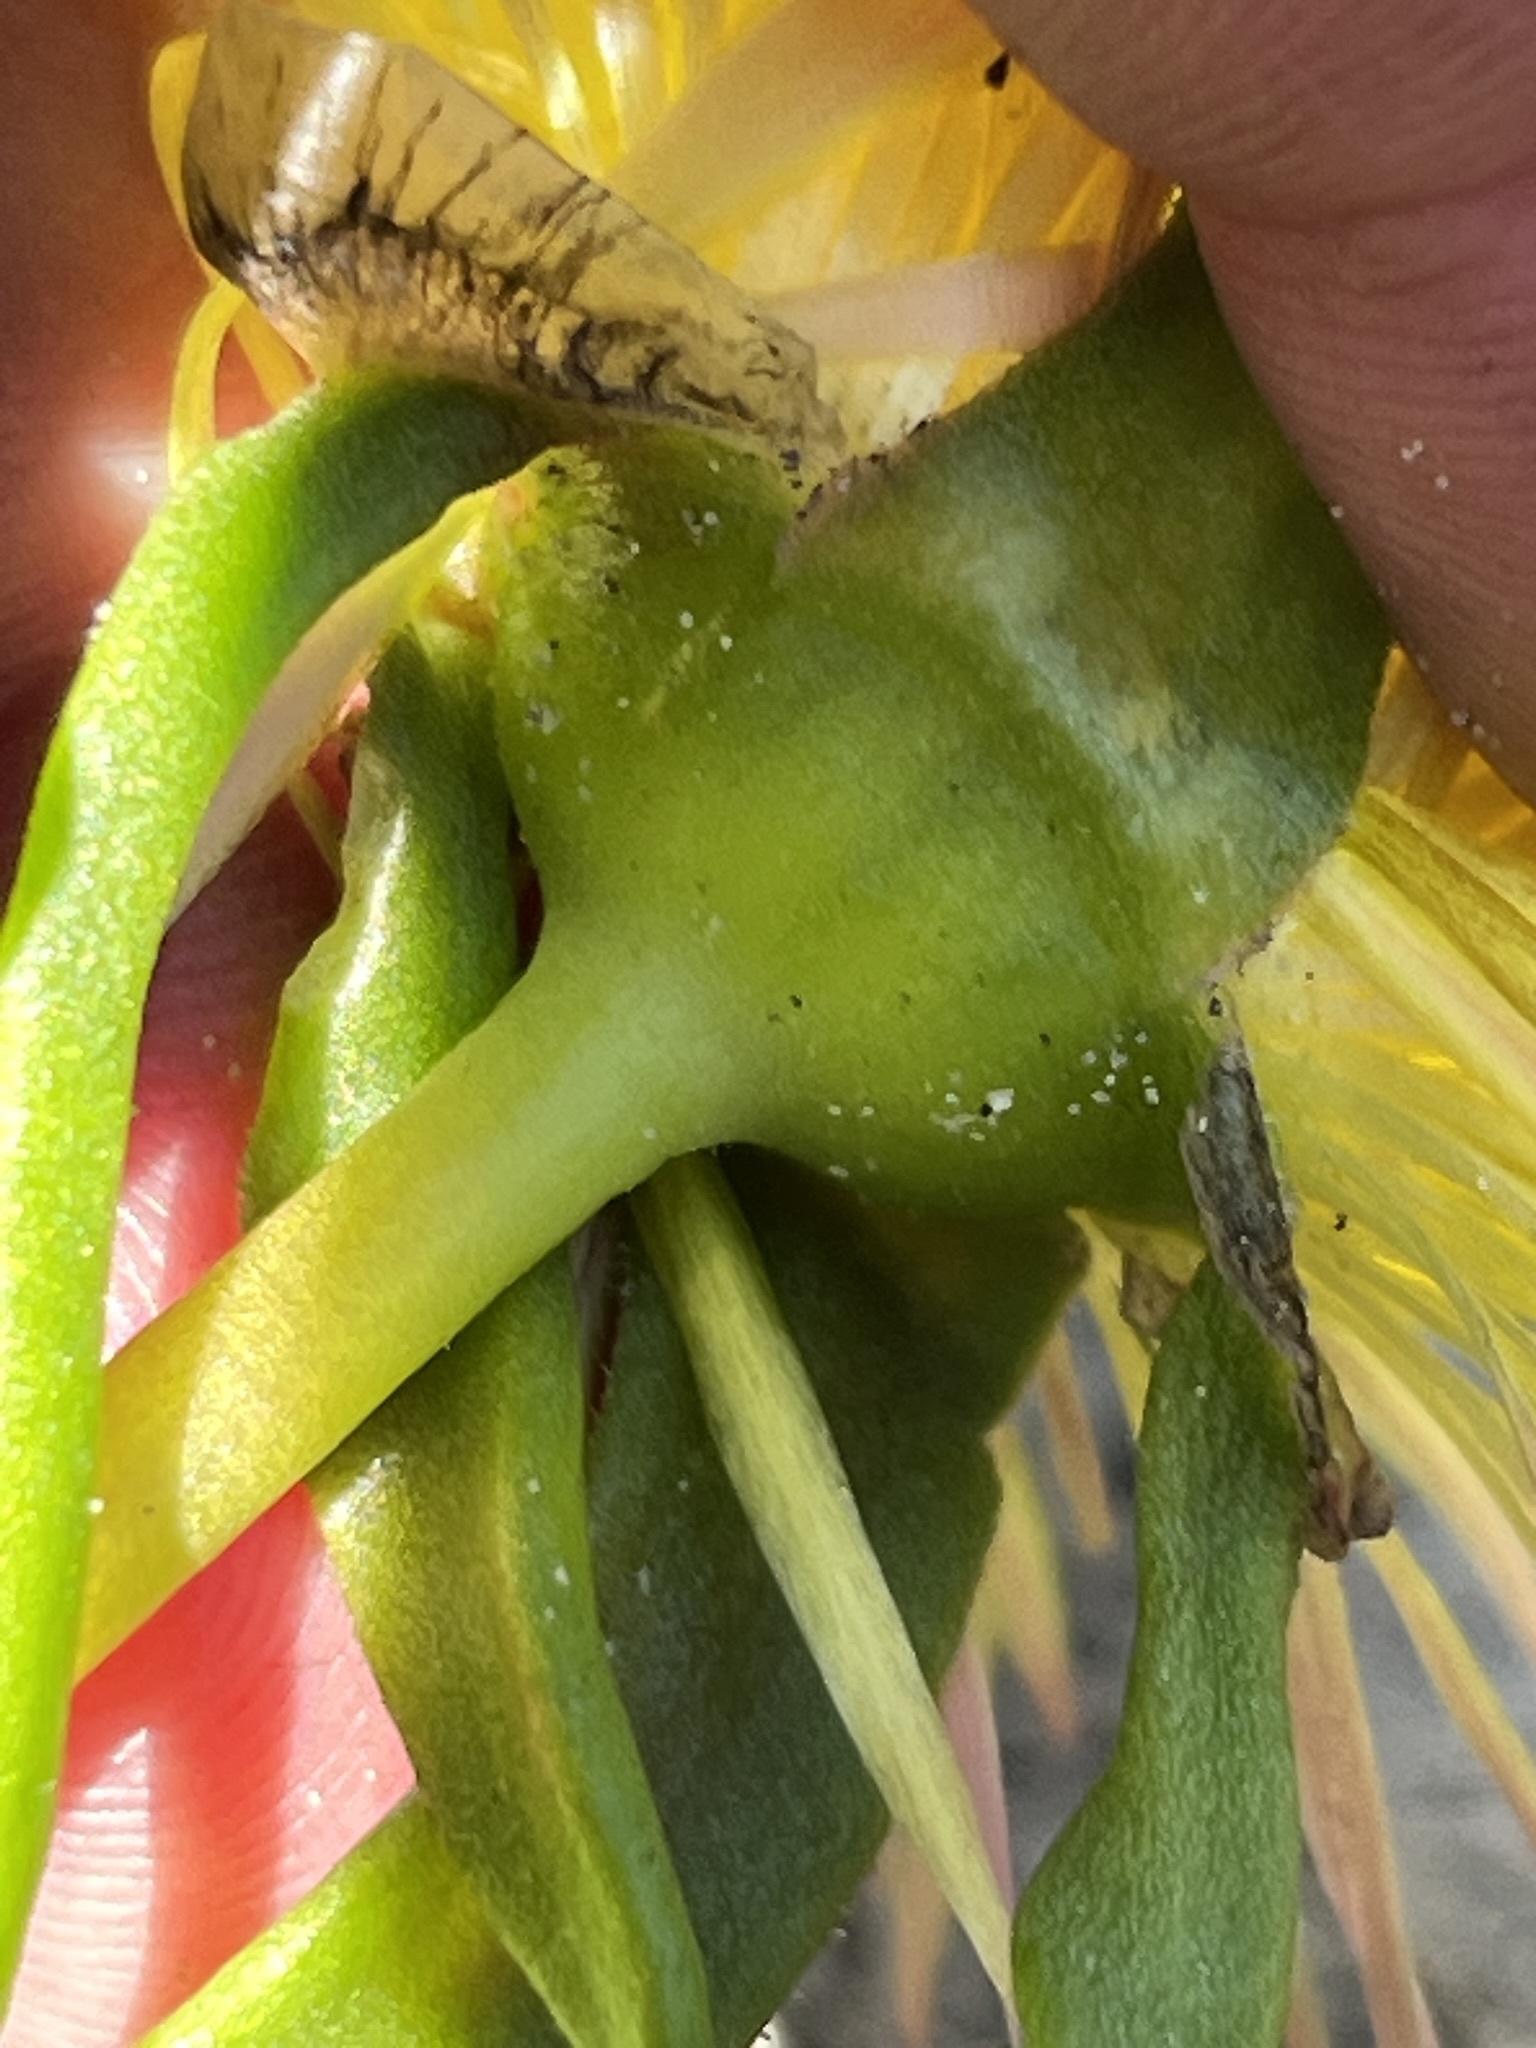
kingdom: Plantae
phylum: Tracheophyta
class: Magnoliopsida
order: Caryophyllales
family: Aizoaceae
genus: Carpanthea
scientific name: Carpanthea pomeridiana
